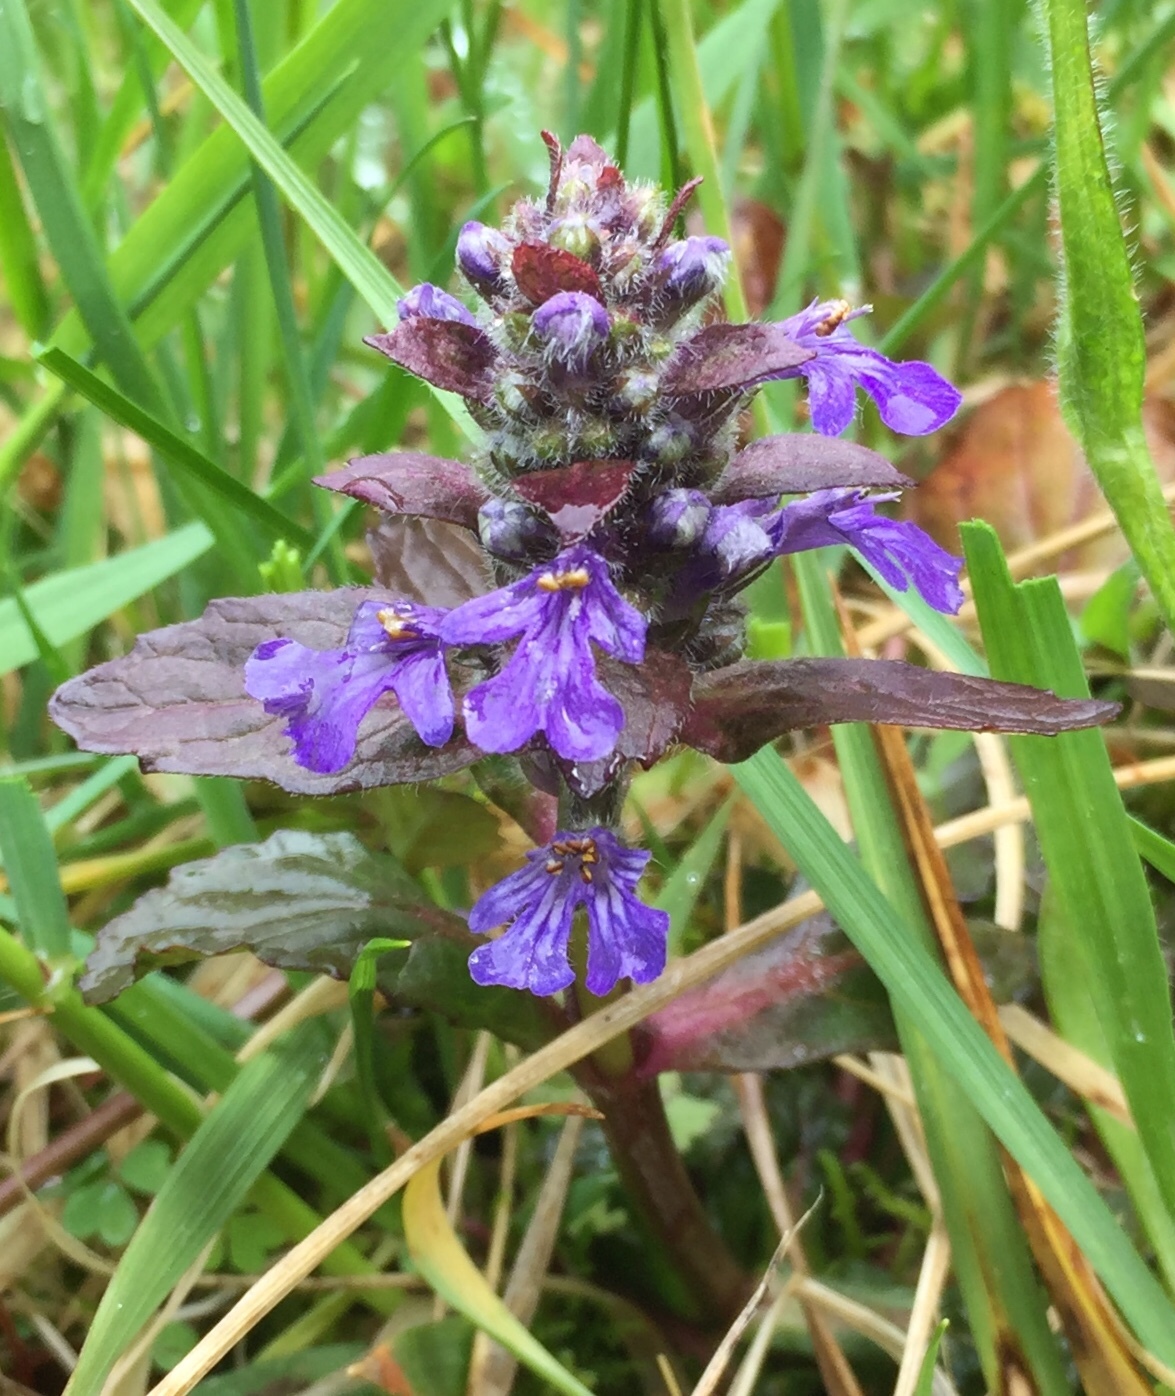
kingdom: Plantae
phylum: Tracheophyta
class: Magnoliopsida
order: Lamiales
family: Lamiaceae
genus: Ajuga
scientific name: Ajuga reptans
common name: Bugle
